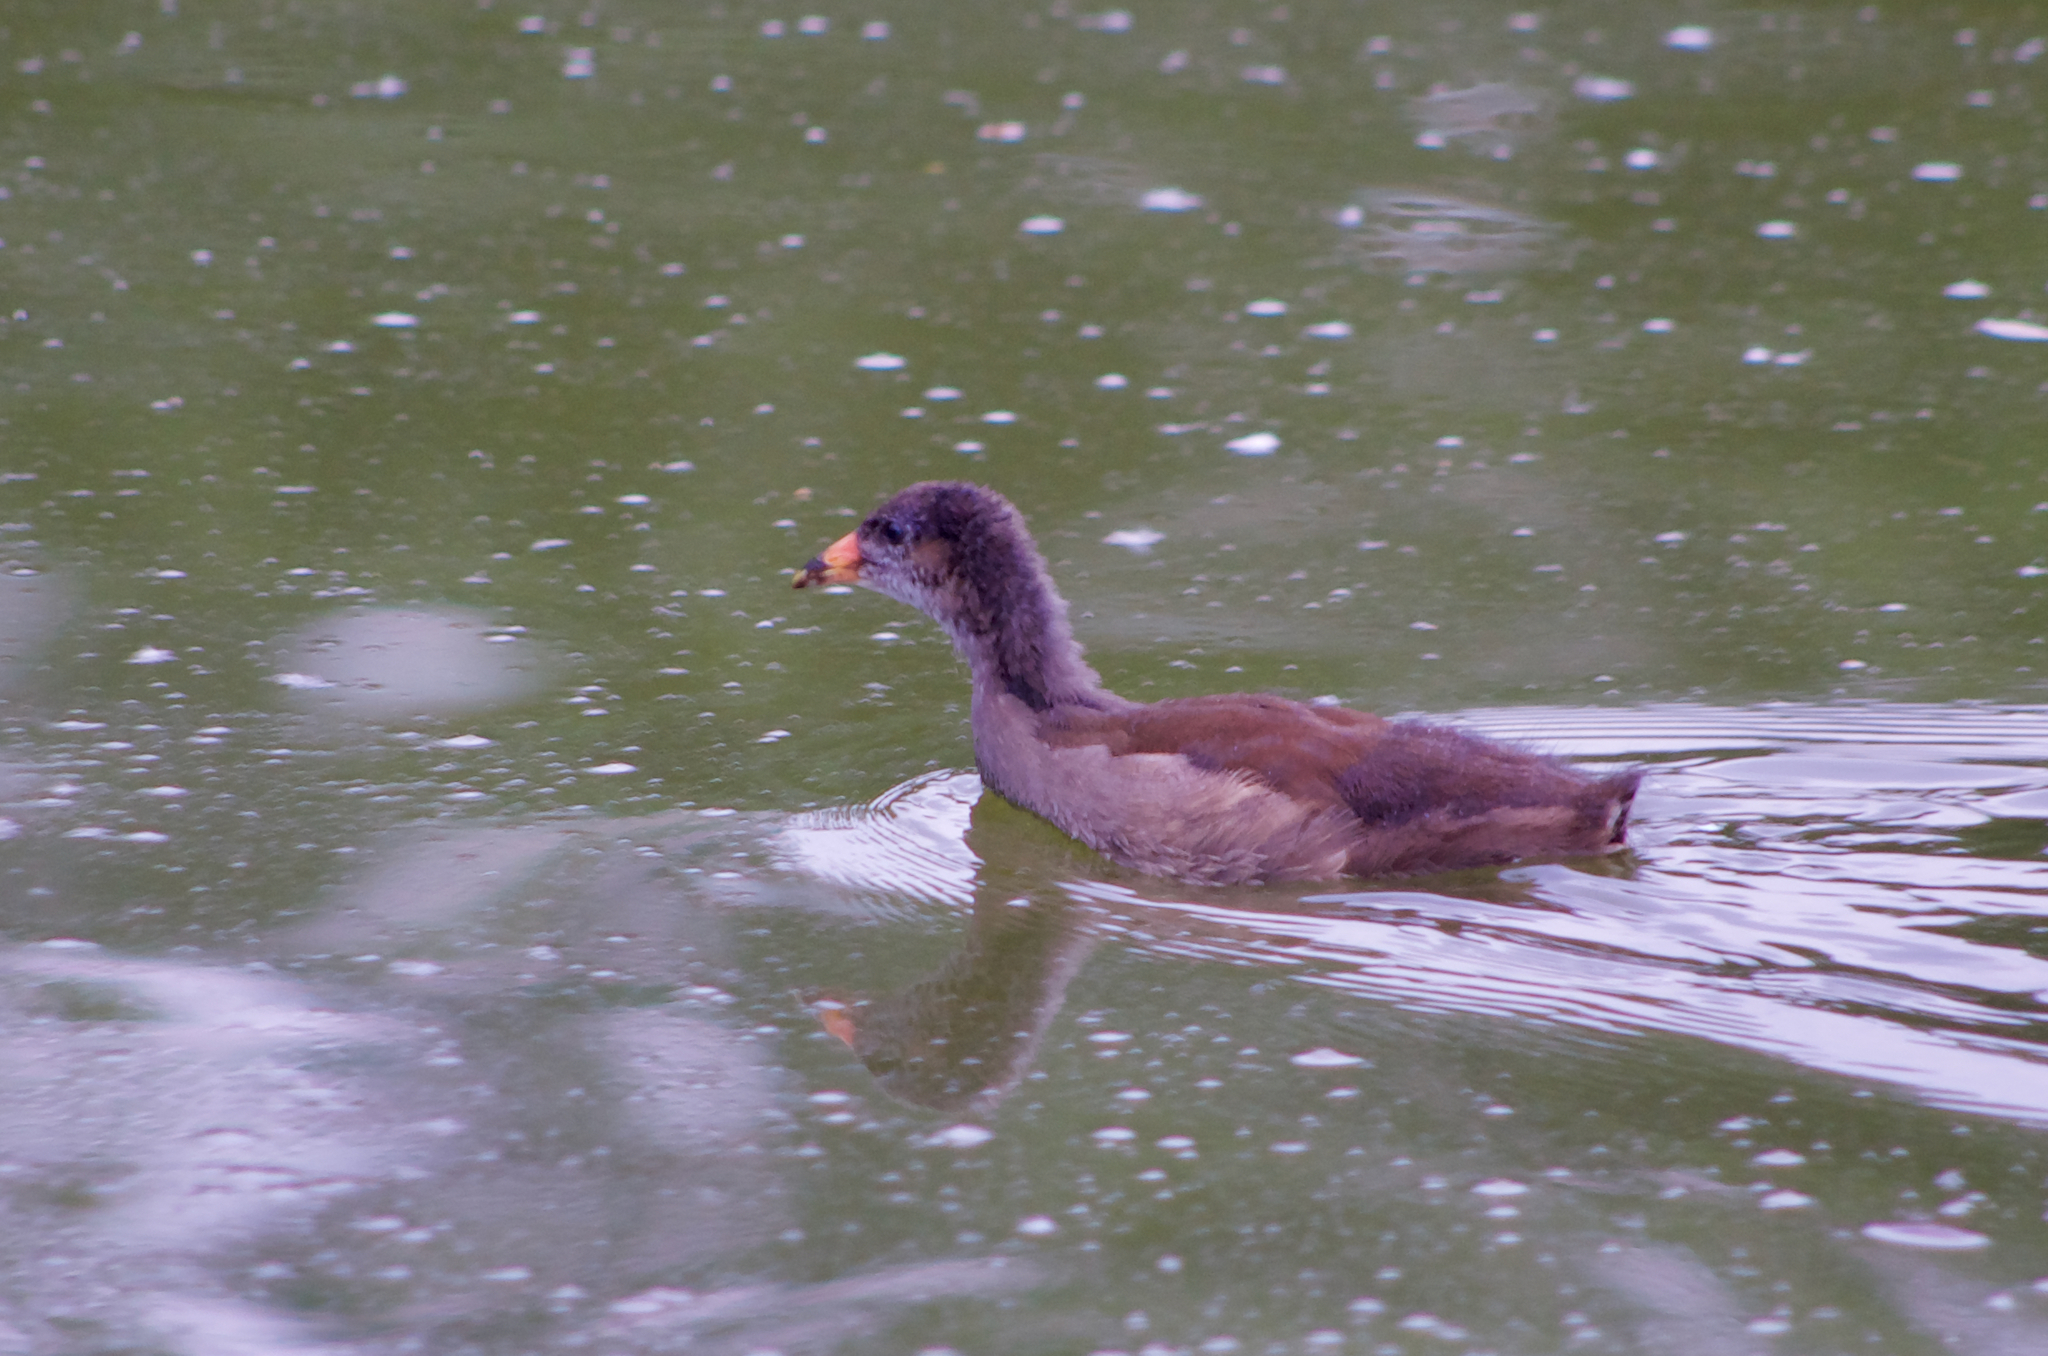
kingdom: Animalia
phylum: Chordata
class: Aves
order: Gruiformes
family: Rallidae
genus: Gallinula
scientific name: Gallinula chloropus
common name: Common moorhen
